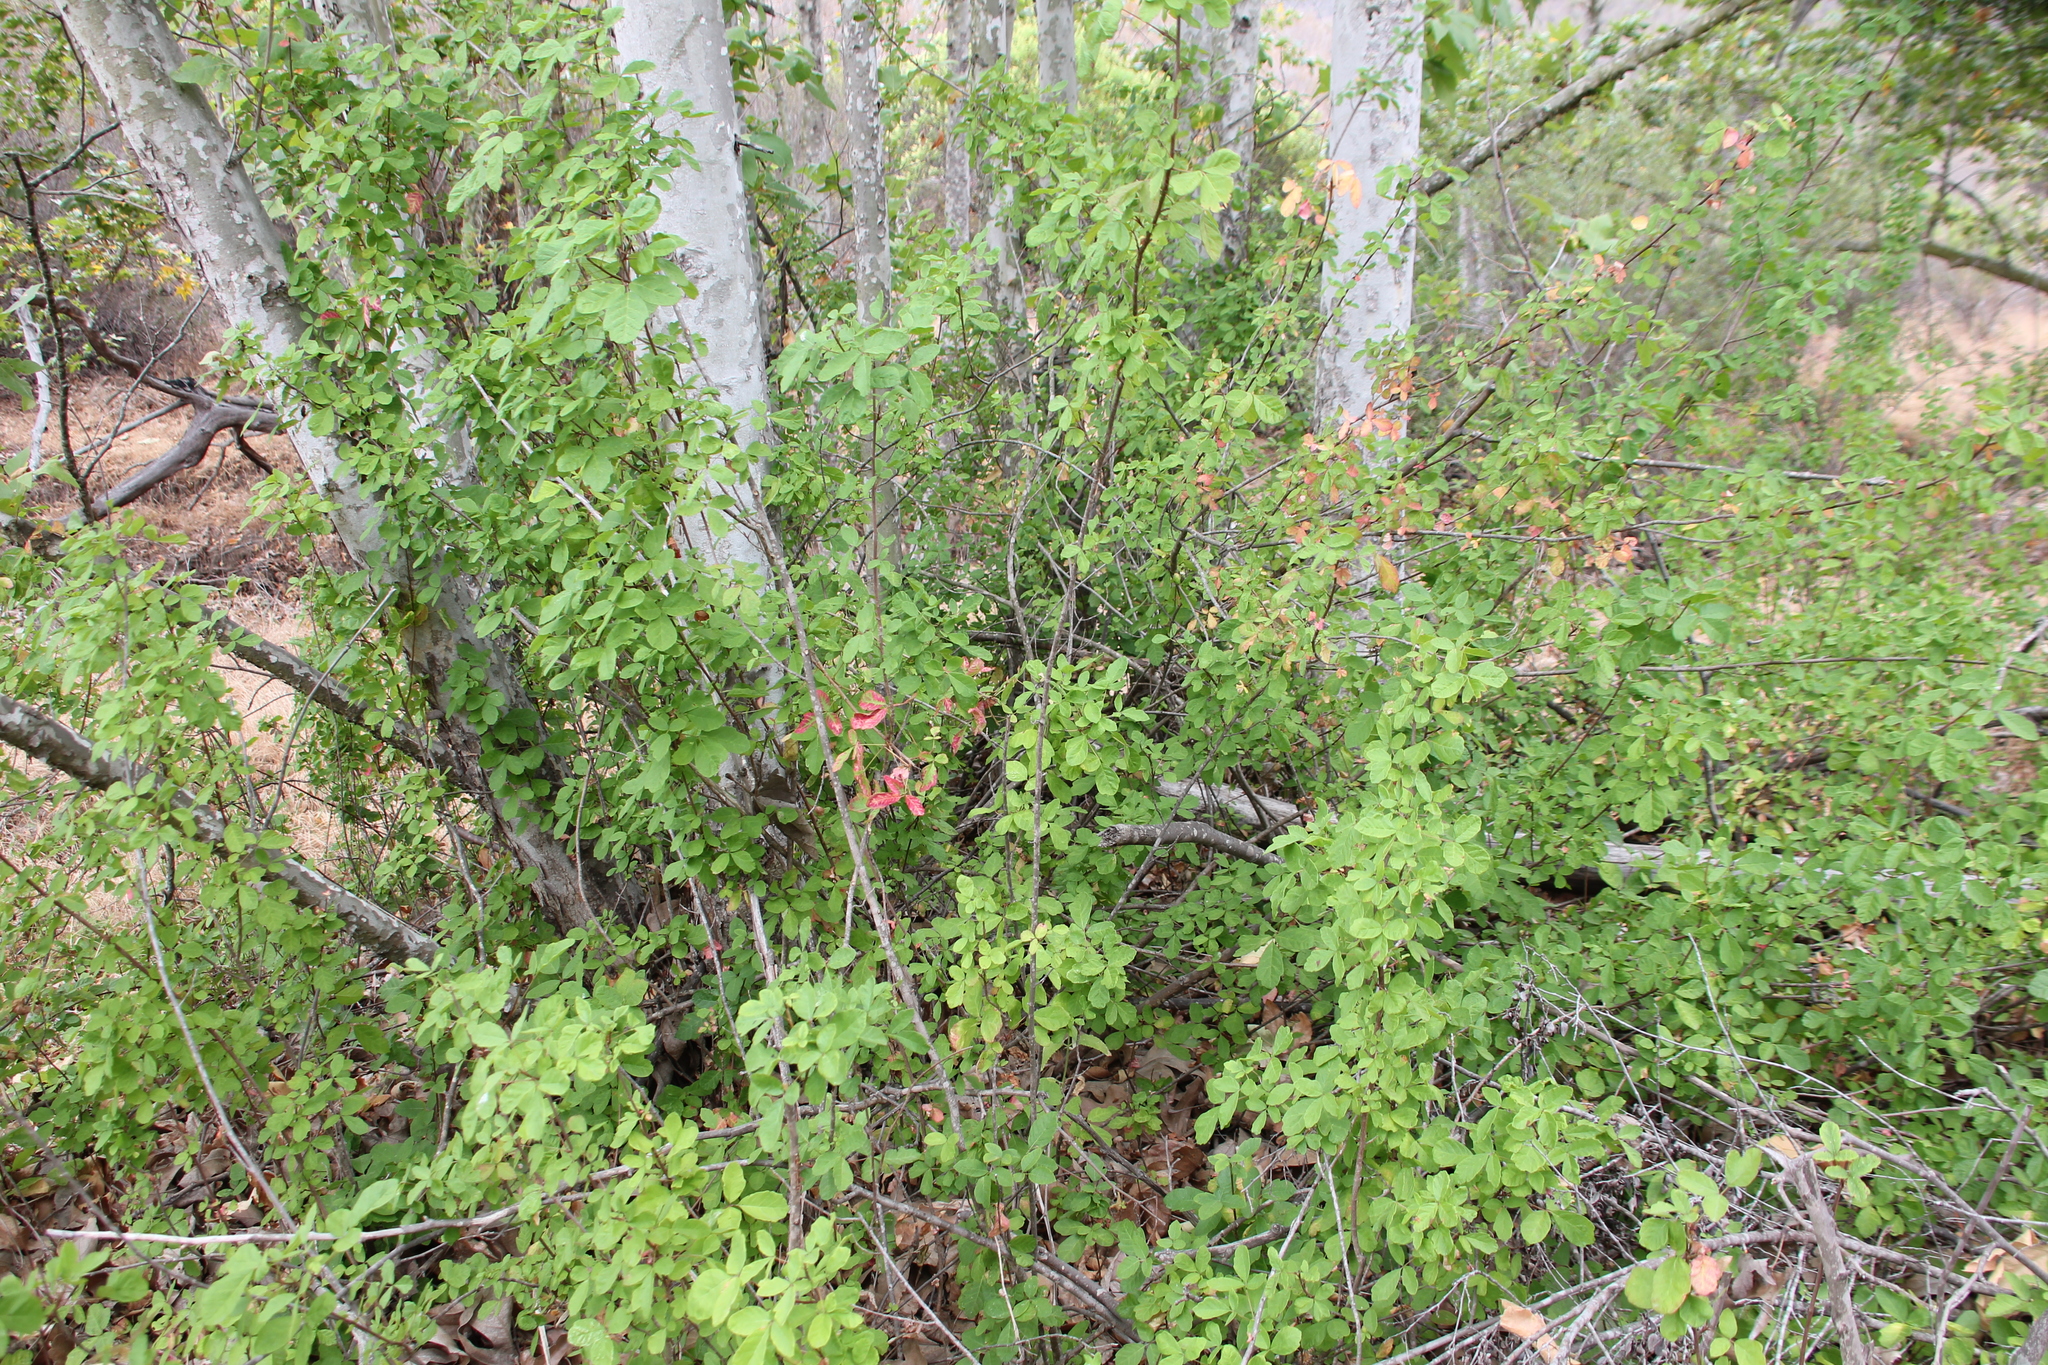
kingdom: Plantae
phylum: Tracheophyta
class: Magnoliopsida
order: Sapindales
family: Anacardiaceae
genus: Toxicodendron
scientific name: Toxicodendron diversilobum
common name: Pacific poison-oak
